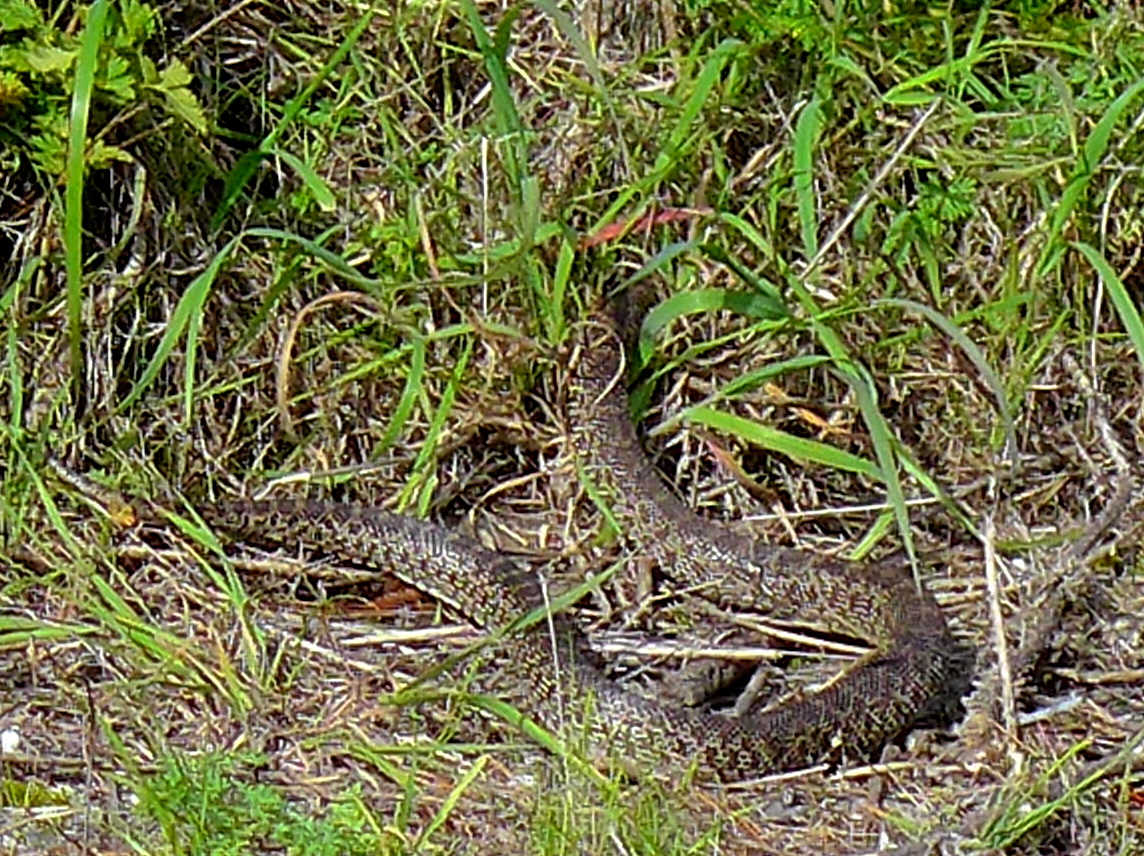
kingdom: Animalia
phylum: Chordata
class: Squamata
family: Colubridae
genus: Pituophis
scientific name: Pituophis catenifer
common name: Gopher snake
